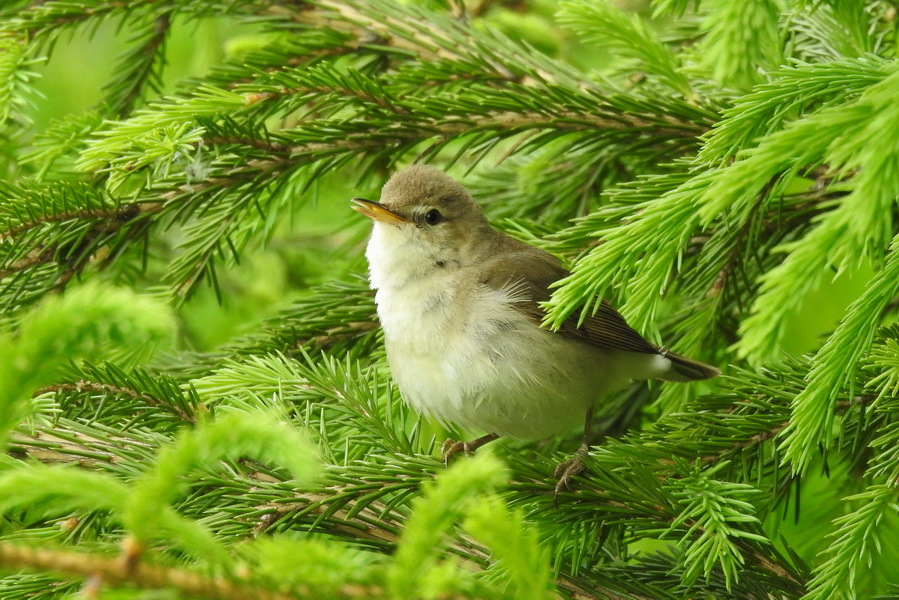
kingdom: Animalia
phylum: Chordata
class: Aves
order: Passeriformes
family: Acrocephalidae
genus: Acrocephalus
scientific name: Acrocephalus dumetorum
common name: Blyth's reed warbler
